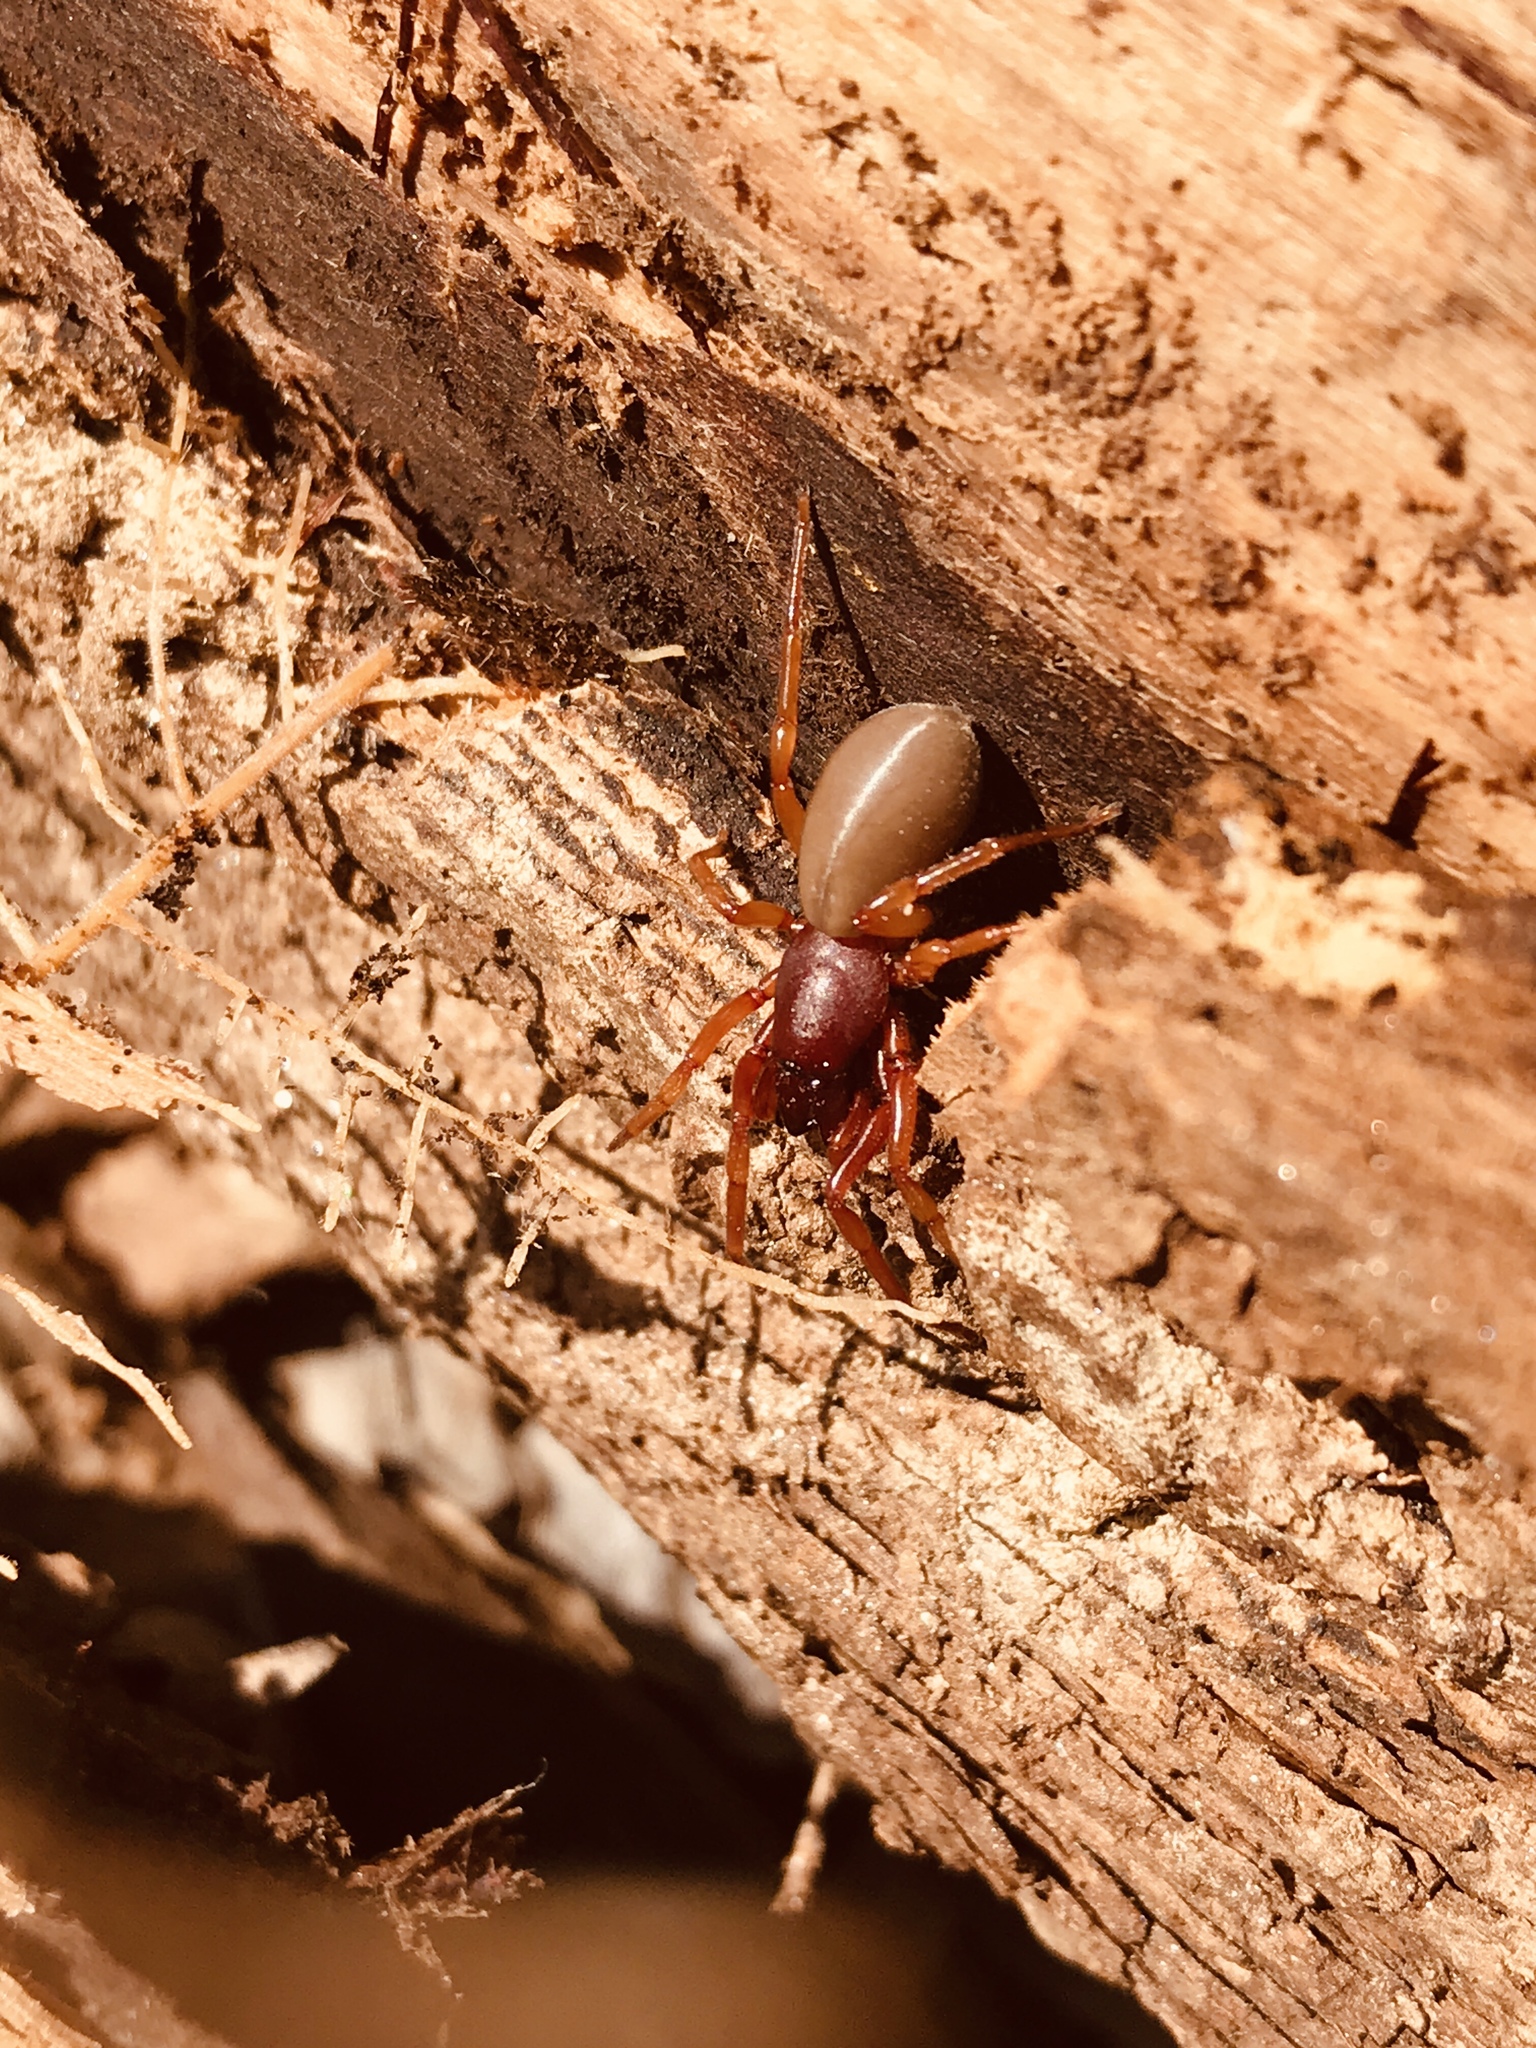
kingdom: Animalia
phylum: Arthropoda
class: Arachnida
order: Araneae
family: Dysderidae
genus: Dysdera
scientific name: Dysdera crocata
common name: Woodlouse spider
